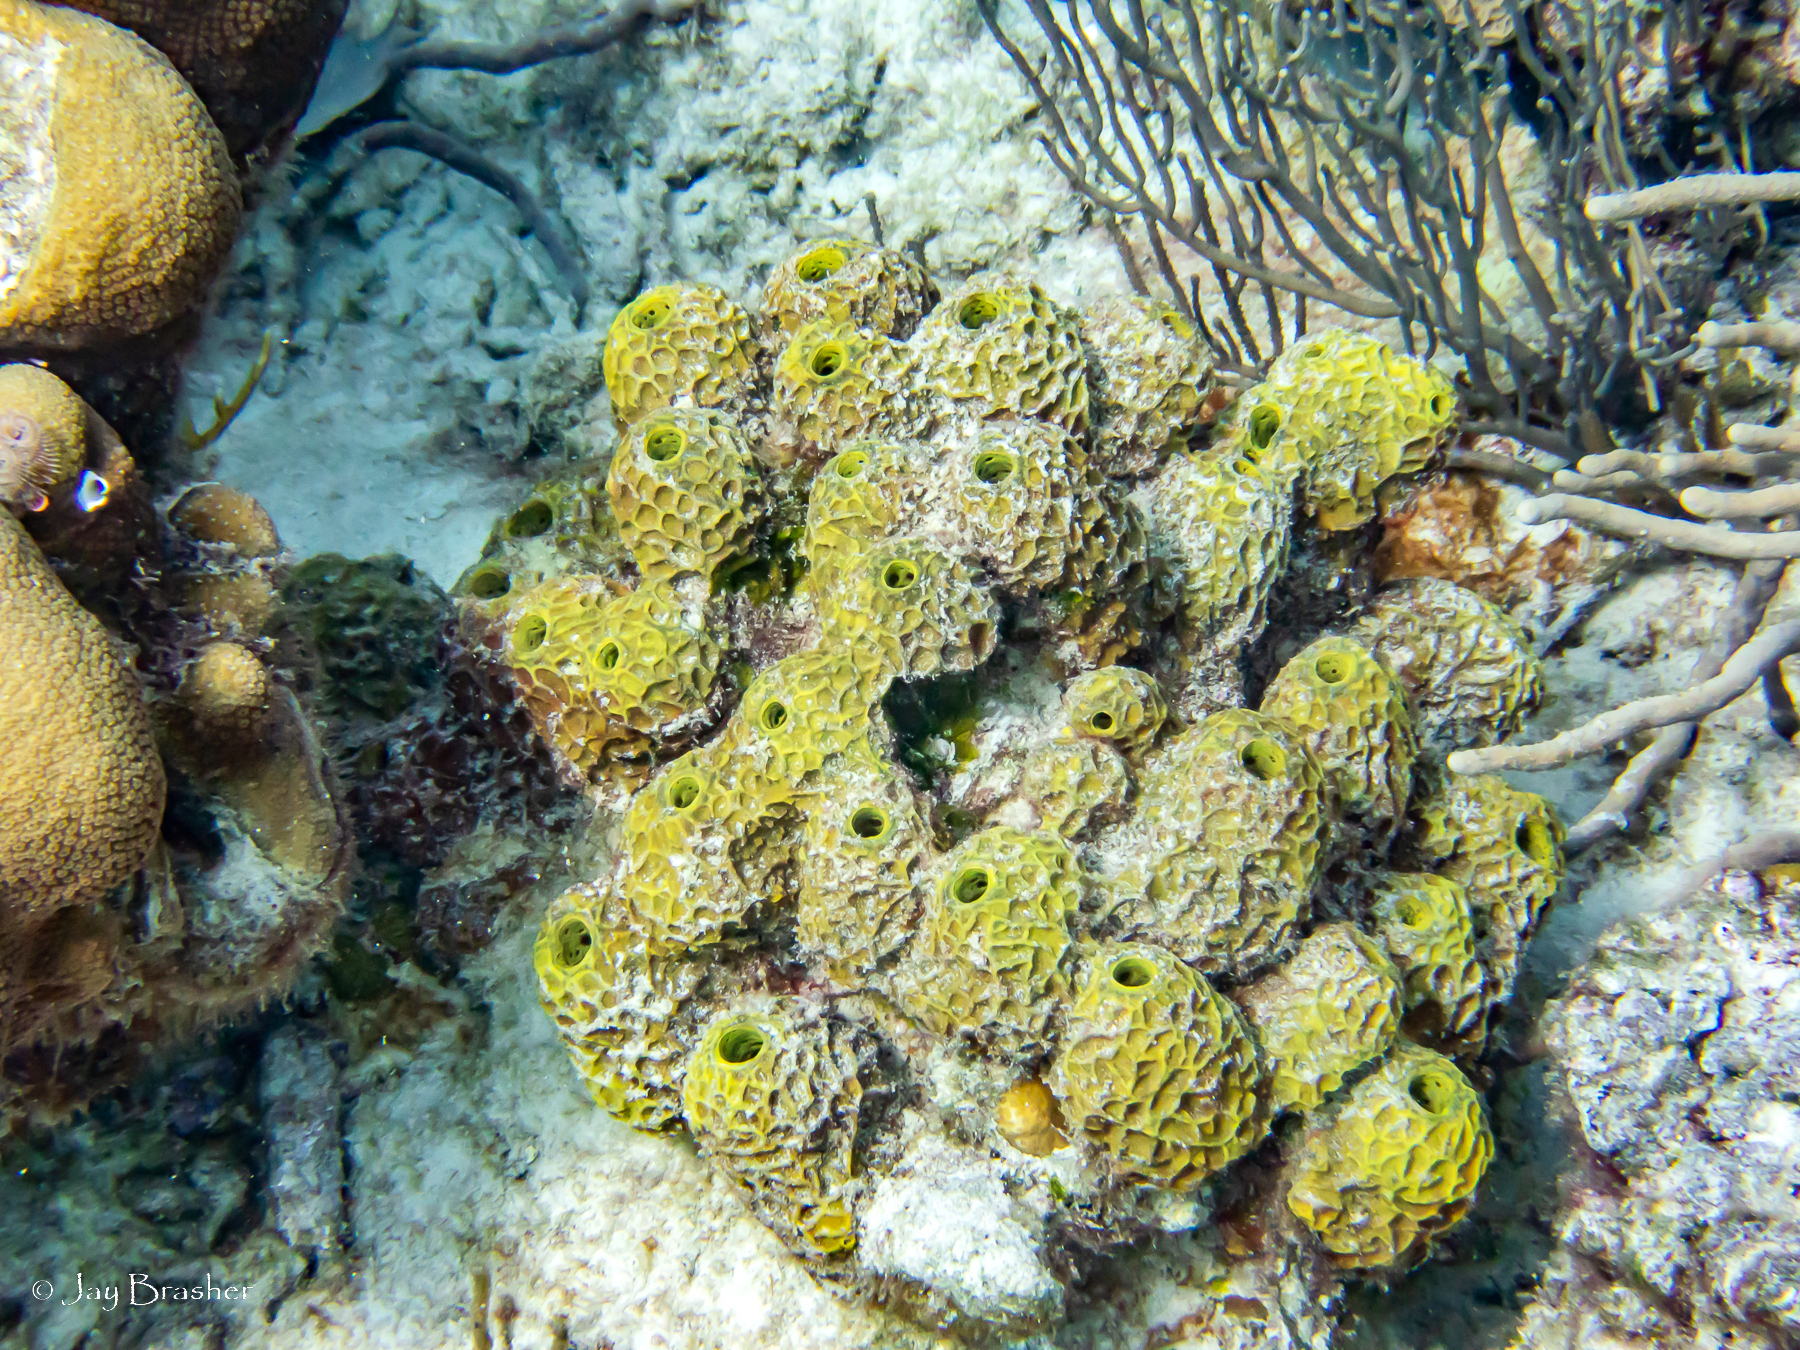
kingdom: Animalia
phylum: Porifera
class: Demospongiae
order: Verongiida
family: Aplysinidae
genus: Verongula
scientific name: Verongula rigida
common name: Pitted sponge
